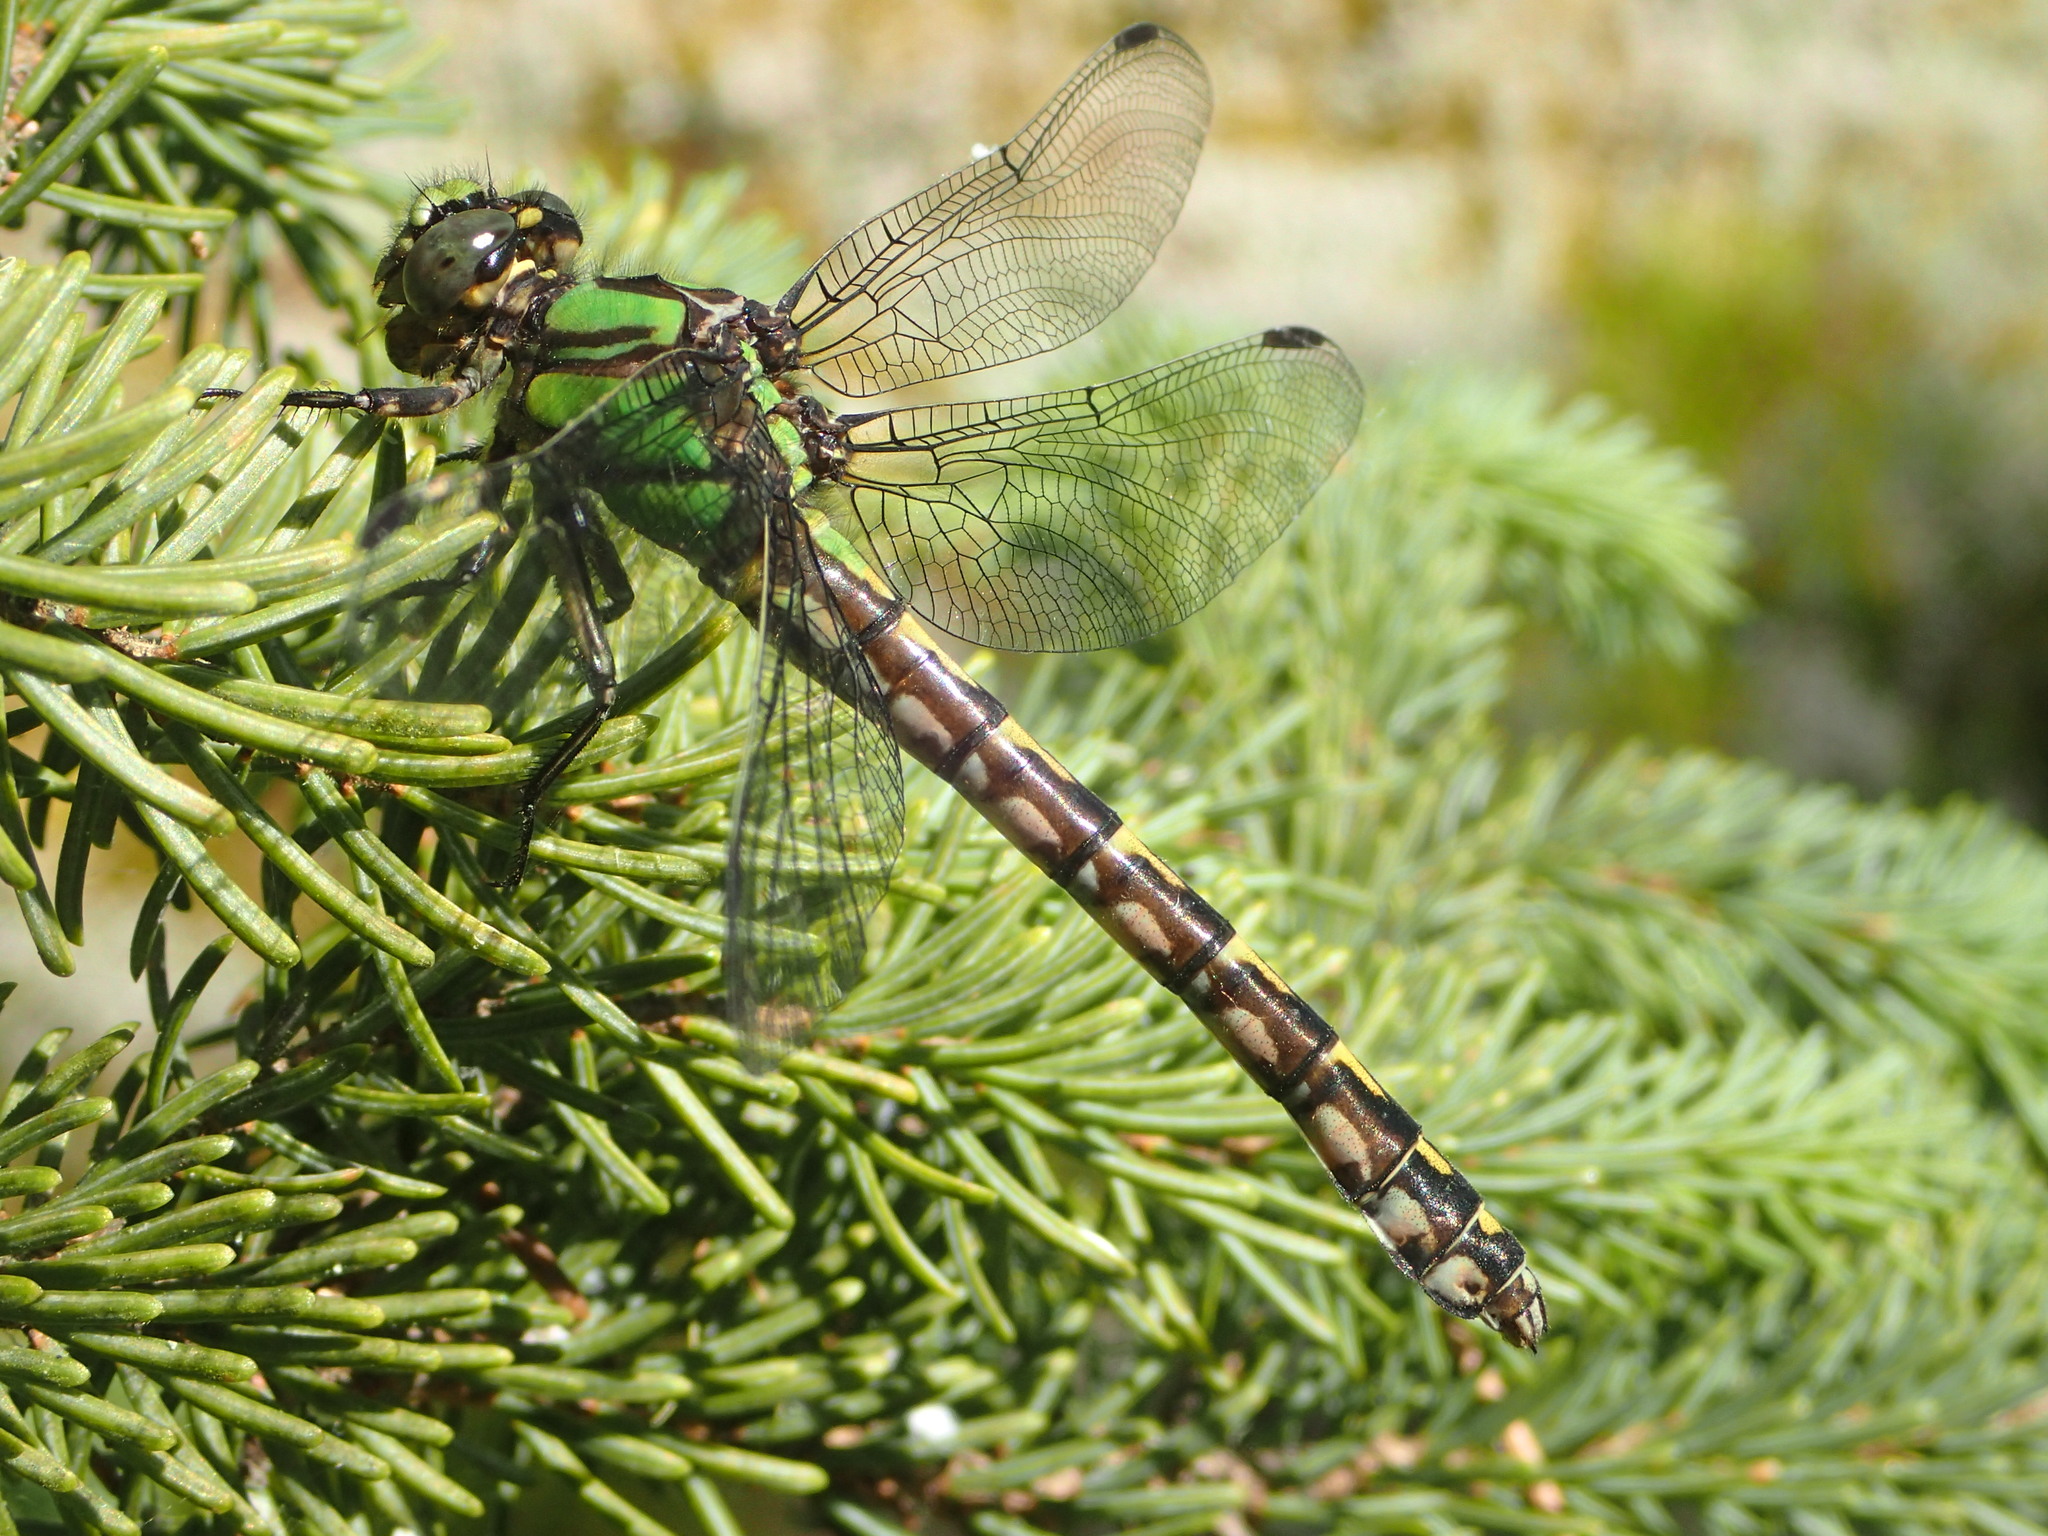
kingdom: Animalia
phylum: Arthropoda
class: Insecta
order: Odonata
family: Gomphidae
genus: Ophiogomphus
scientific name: Ophiogomphus colubrinus
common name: Boreal snaketail
